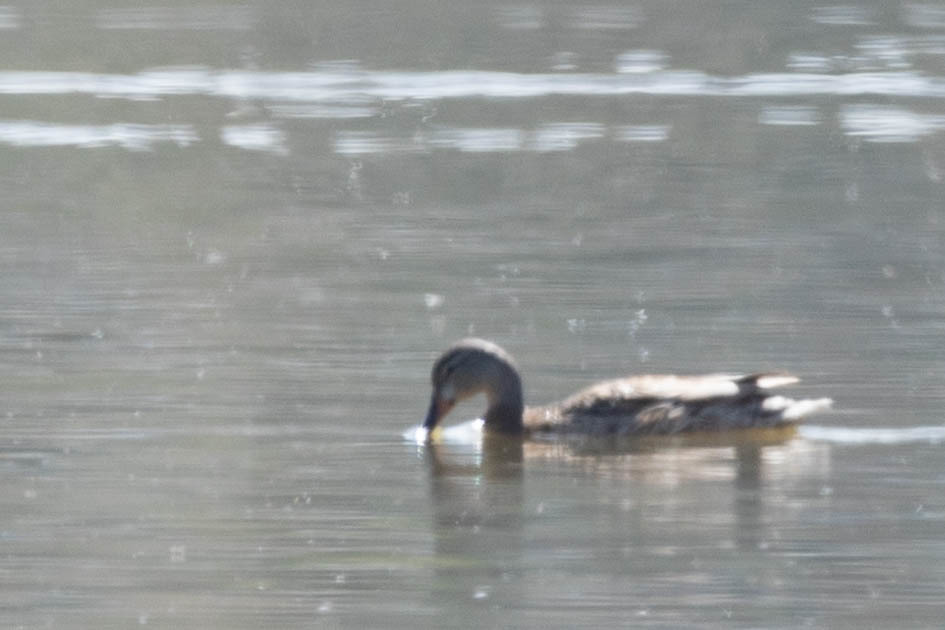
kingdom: Animalia
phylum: Chordata
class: Aves
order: Anseriformes
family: Anatidae
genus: Anas
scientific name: Anas platyrhynchos
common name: Mallard
